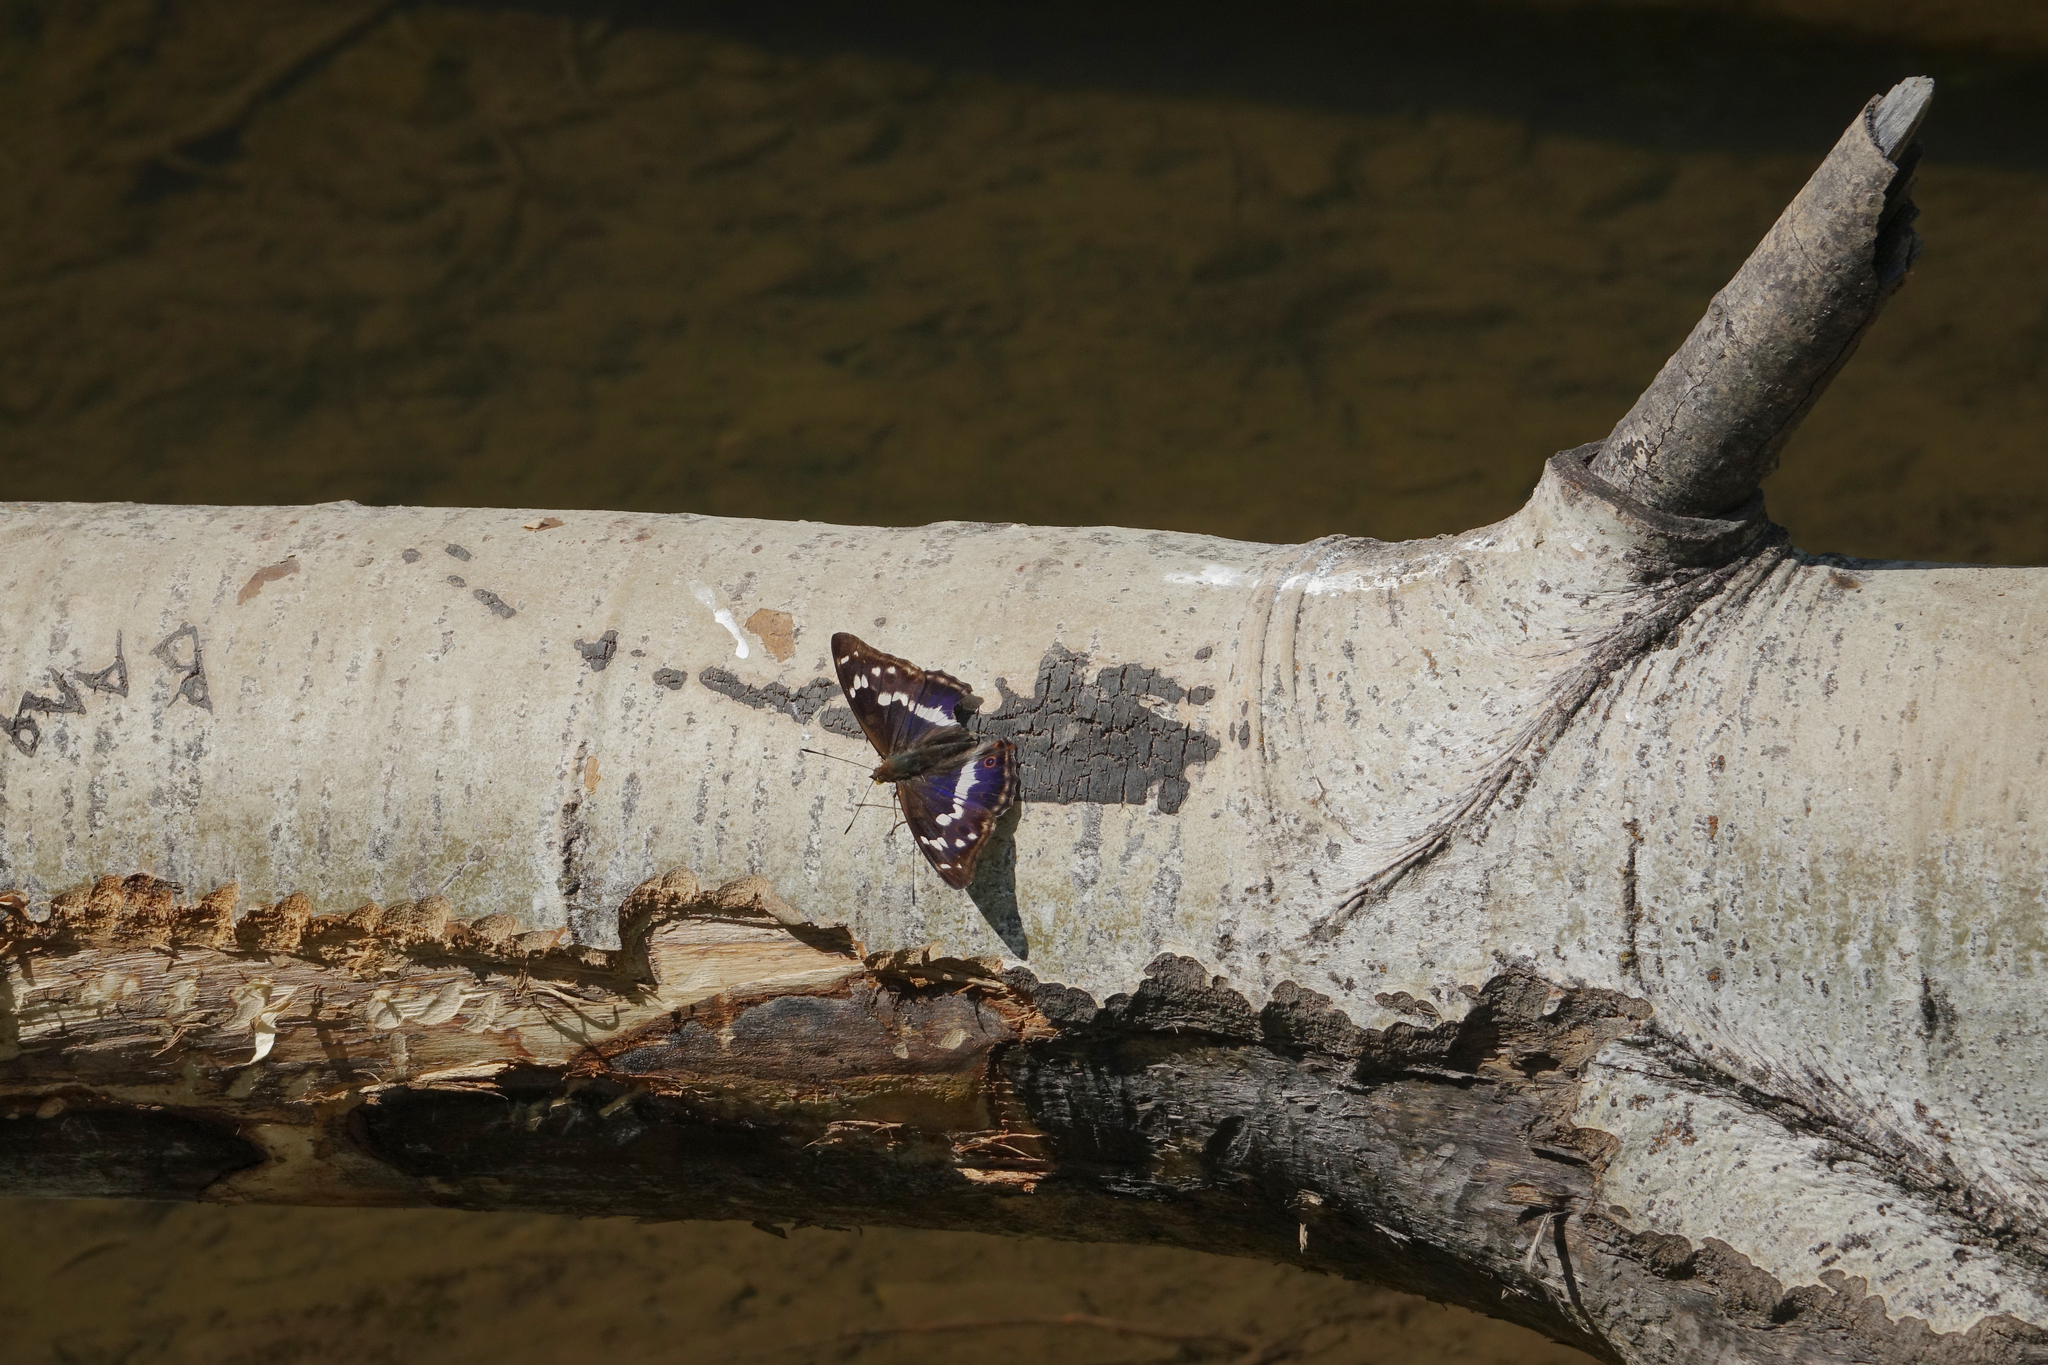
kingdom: Animalia
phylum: Arthropoda
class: Insecta
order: Lepidoptera
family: Nymphalidae
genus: Apatura
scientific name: Apatura iris
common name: Purple emperor
